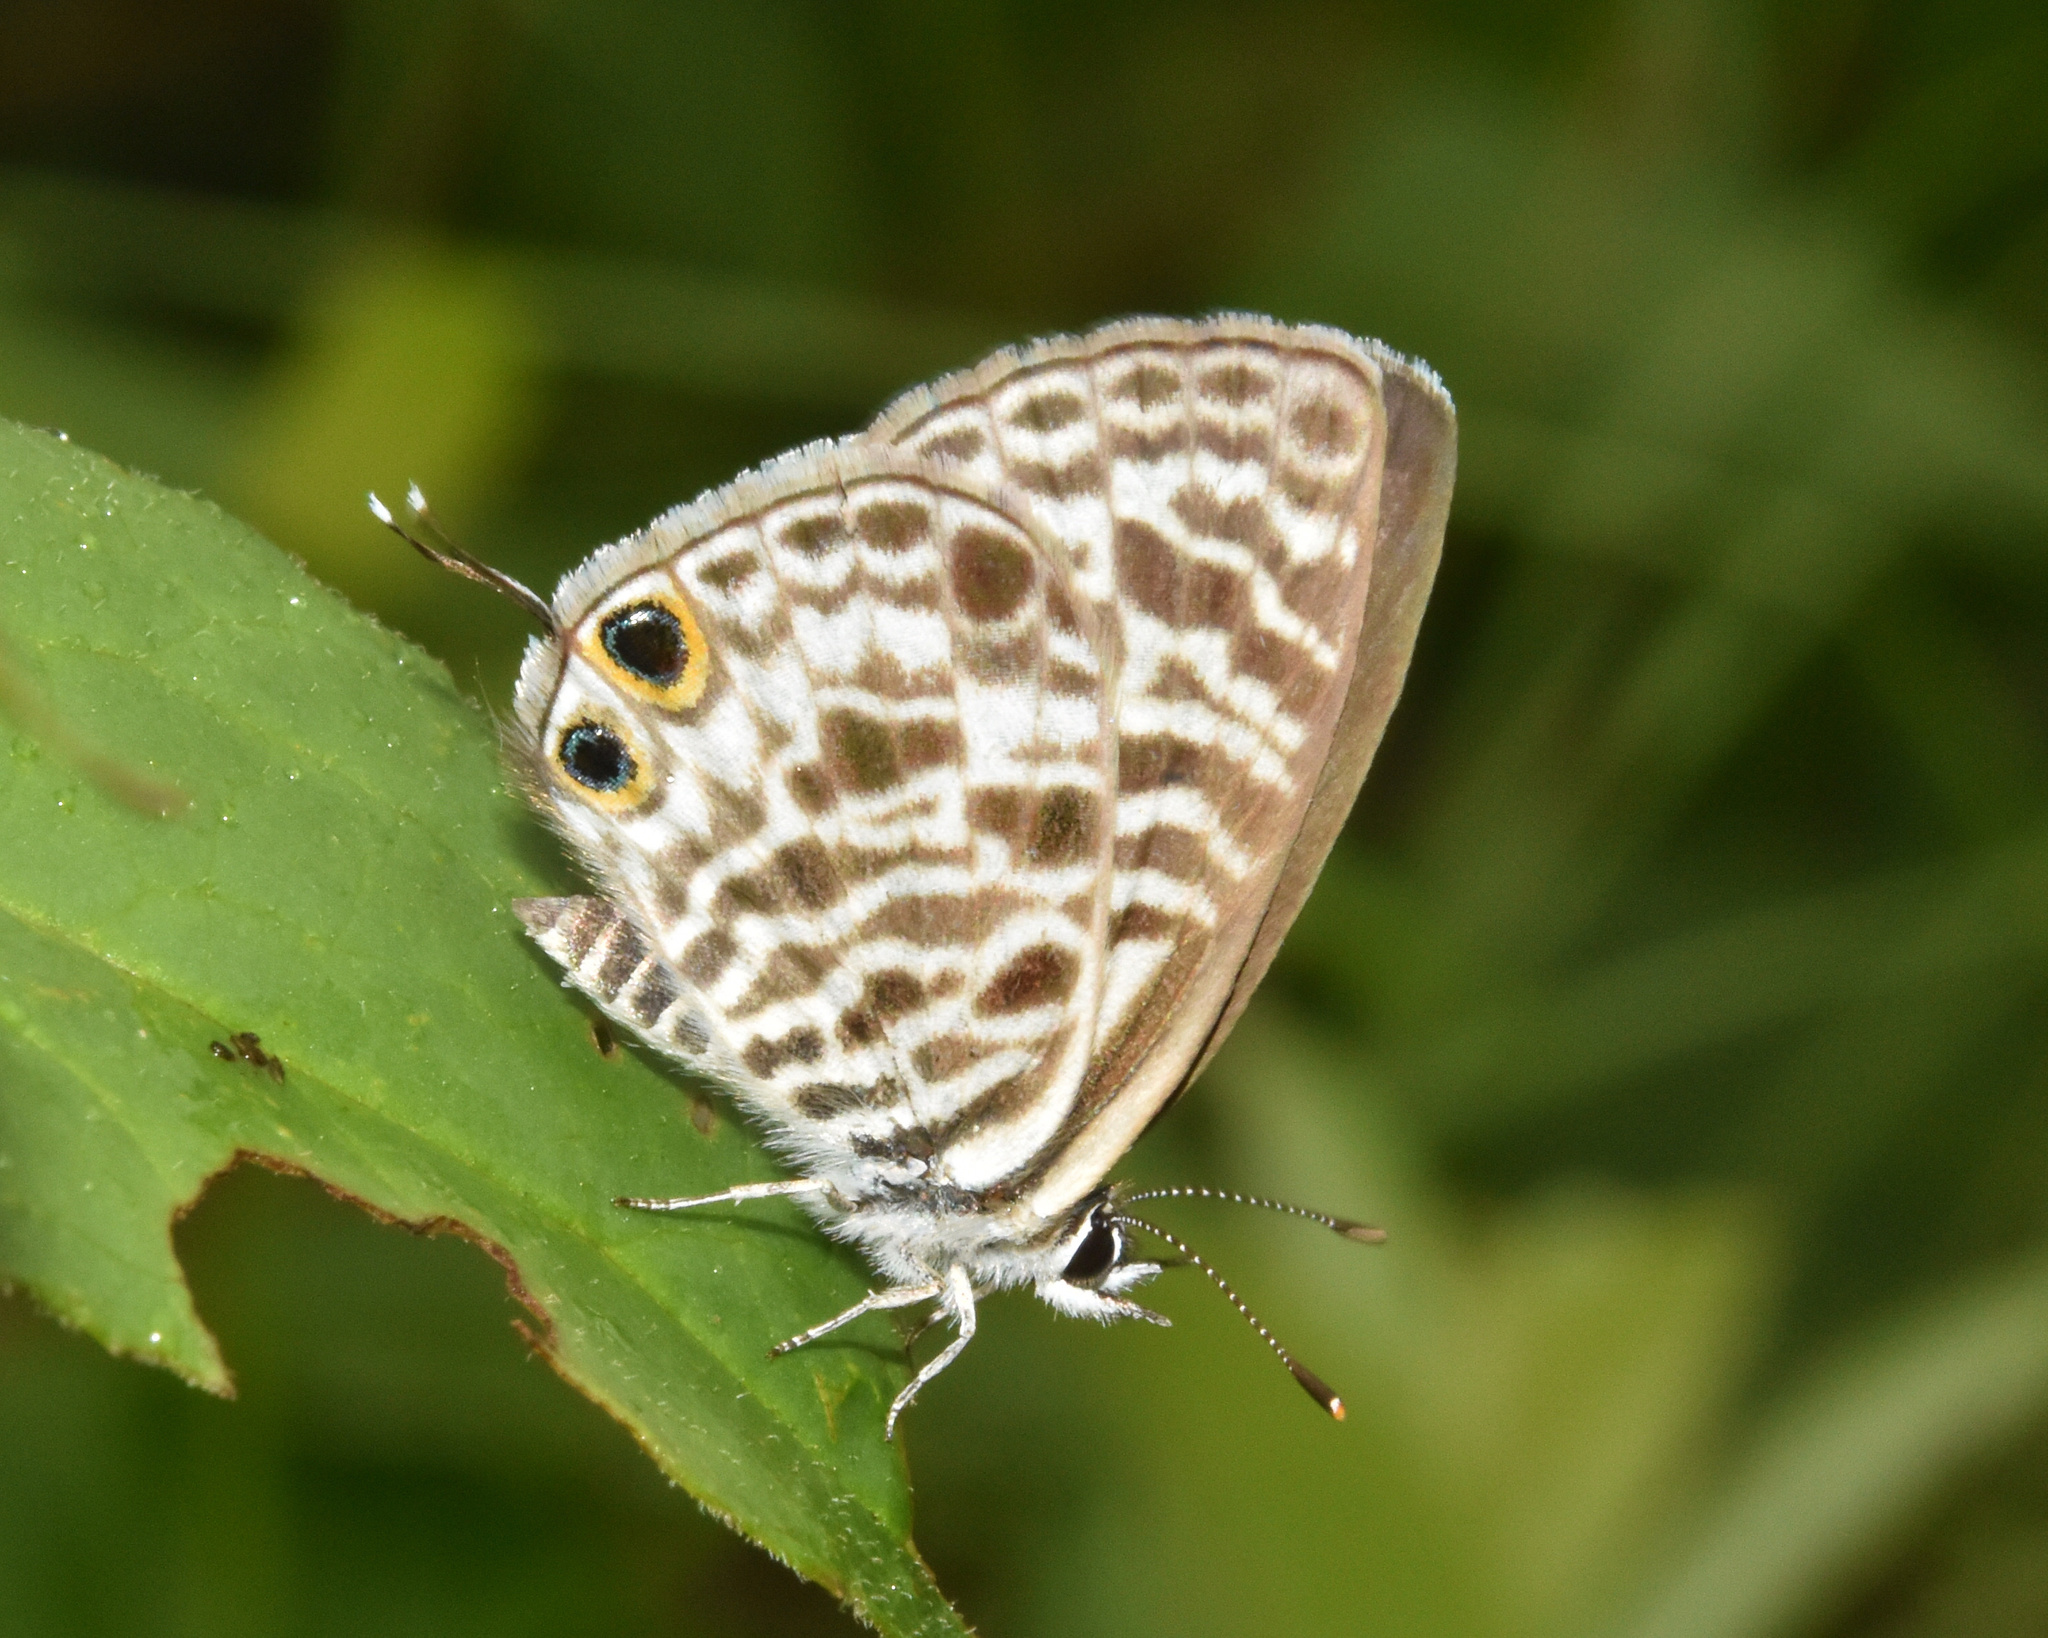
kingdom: Animalia
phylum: Arthropoda
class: Insecta
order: Lepidoptera
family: Lycaenidae
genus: Leptotes
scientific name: Leptotes
